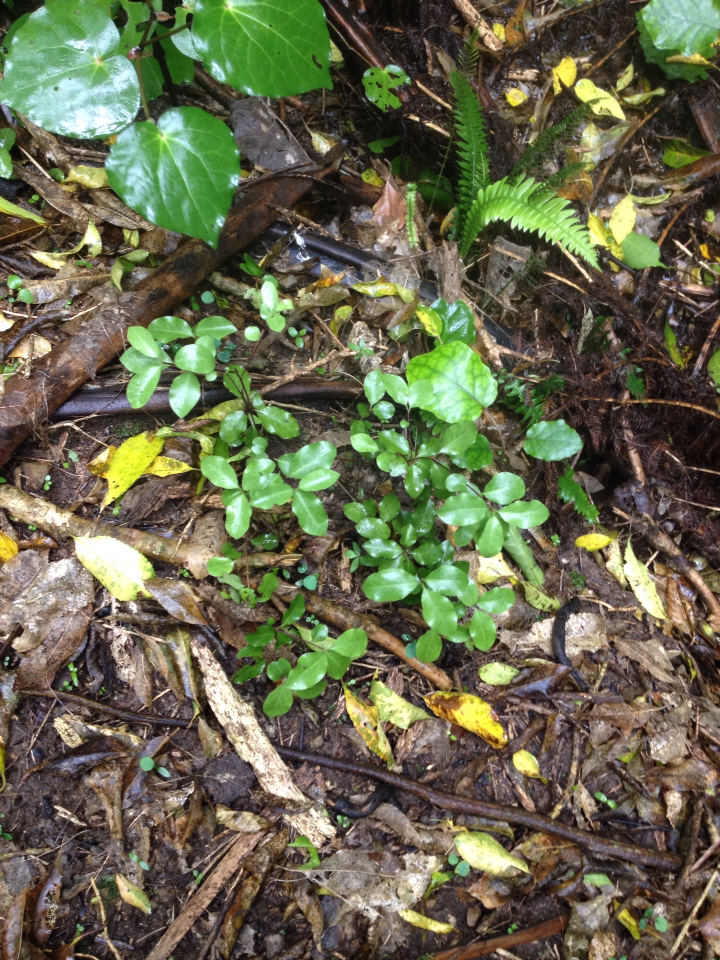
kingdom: Plantae
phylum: Tracheophyta
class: Magnoliopsida
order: Apiales
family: Pittosporaceae
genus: Pittosporum
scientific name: Pittosporum tenuifolium
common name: Kohuhu
